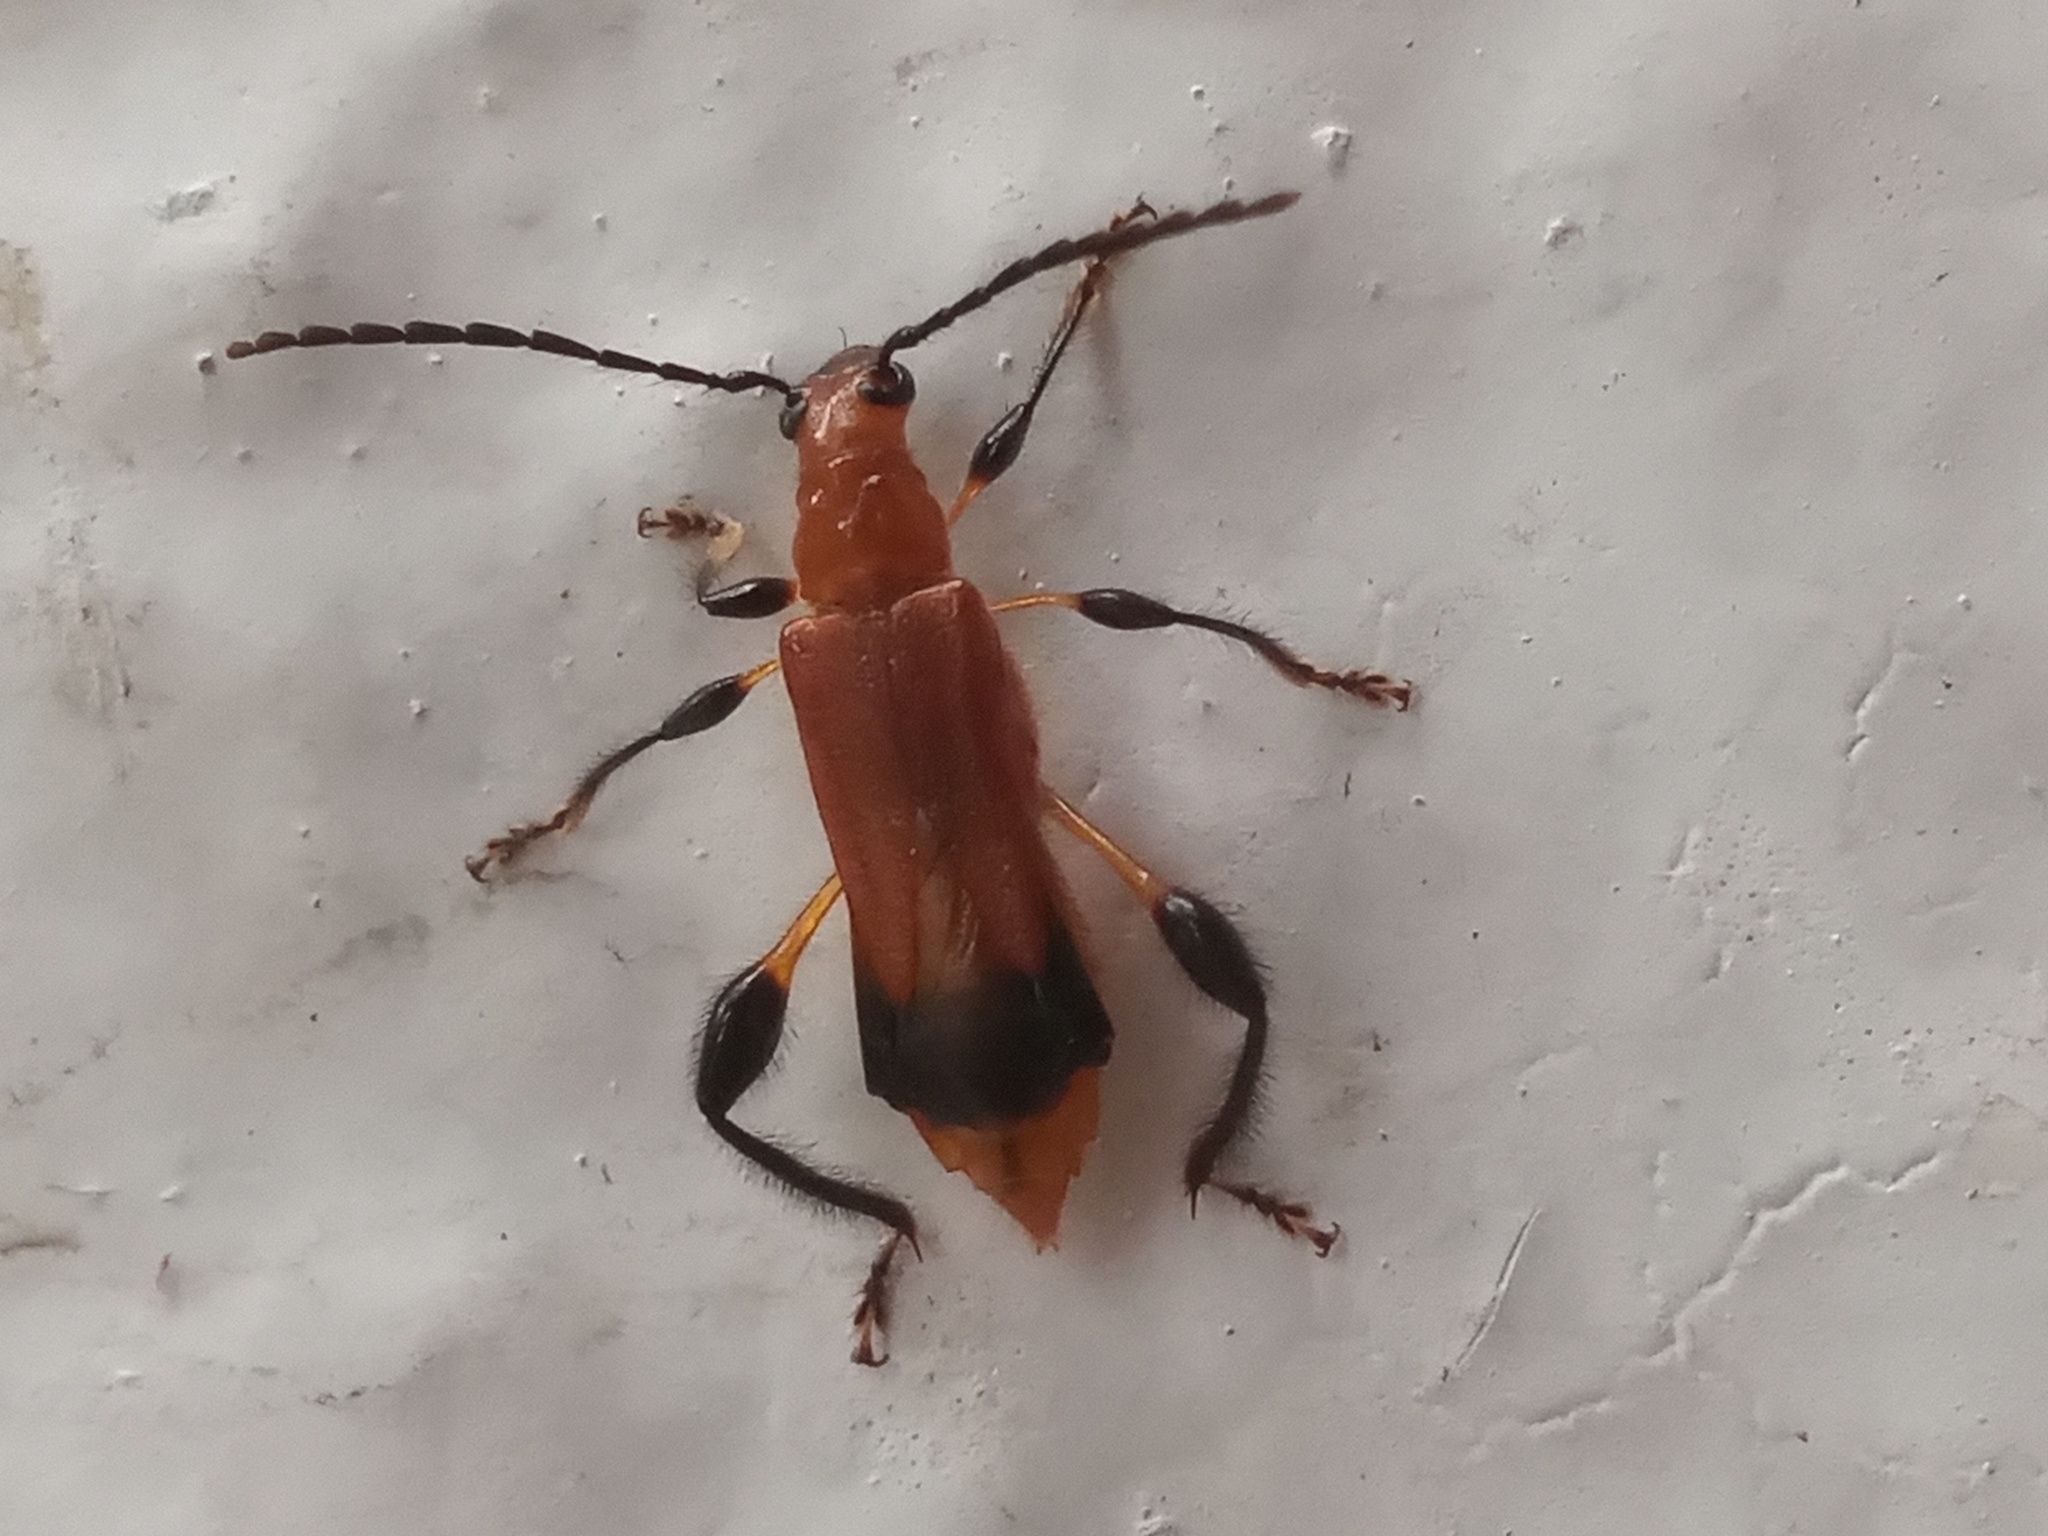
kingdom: Animalia
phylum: Arthropoda
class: Insecta
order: Coleoptera
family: Cerambycidae
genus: Oxycoleus
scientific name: Oxycoleus clavipes
